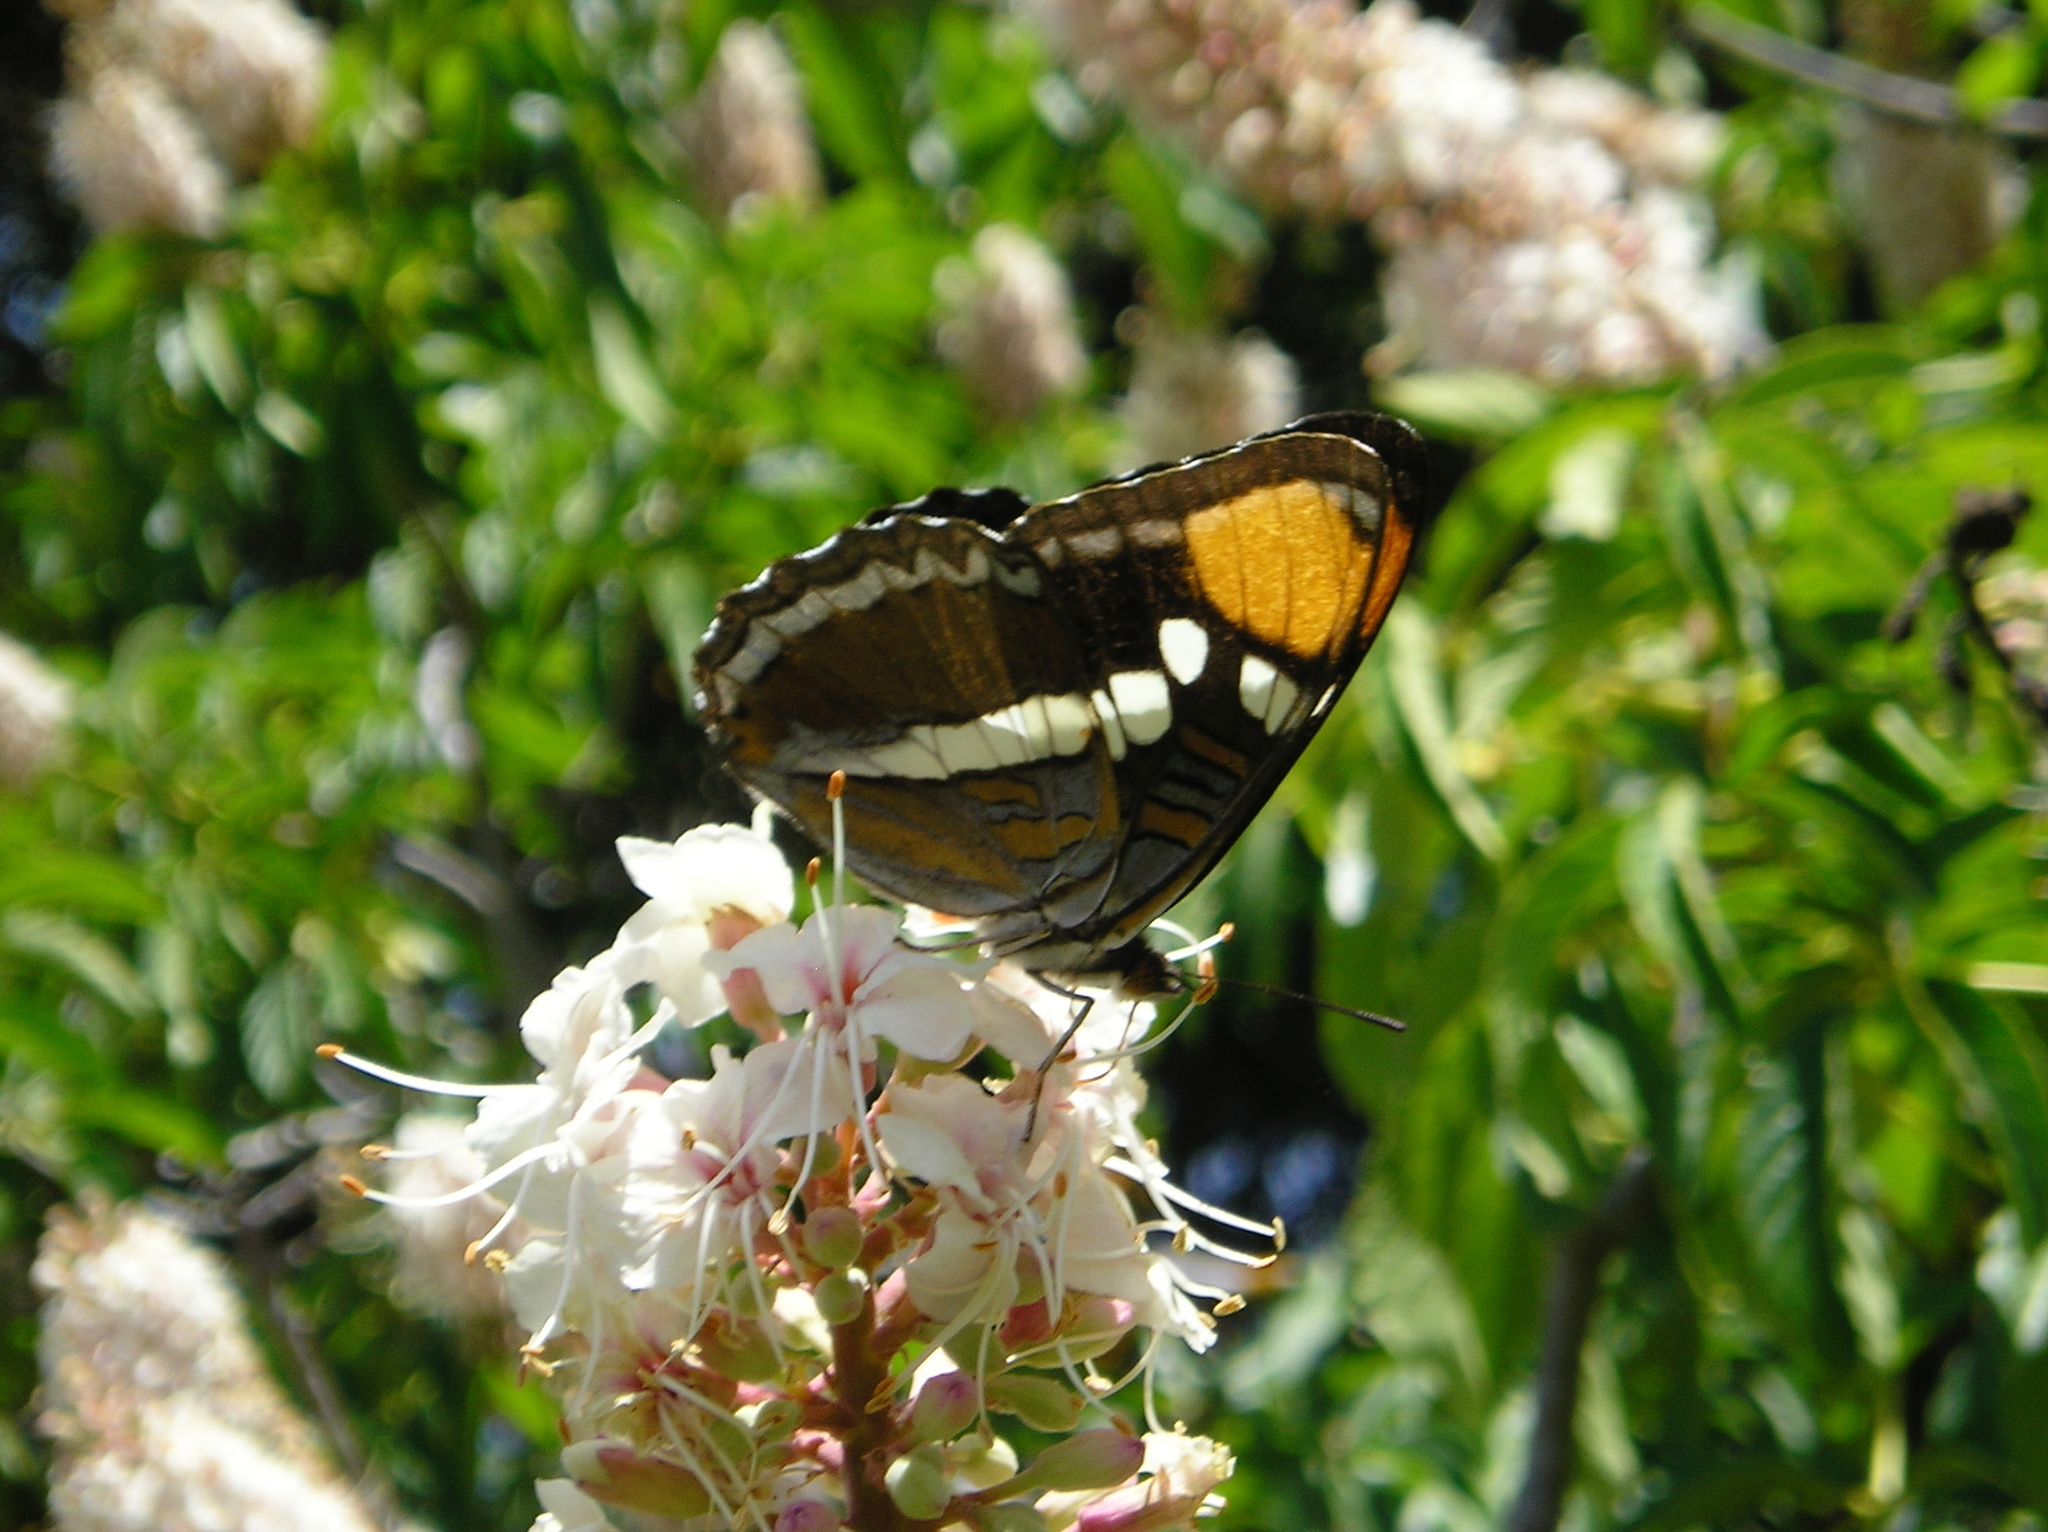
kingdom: Animalia
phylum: Arthropoda
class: Insecta
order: Lepidoptera
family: Nymphalidae
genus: Limenitis
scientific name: Limenitis bredowii
